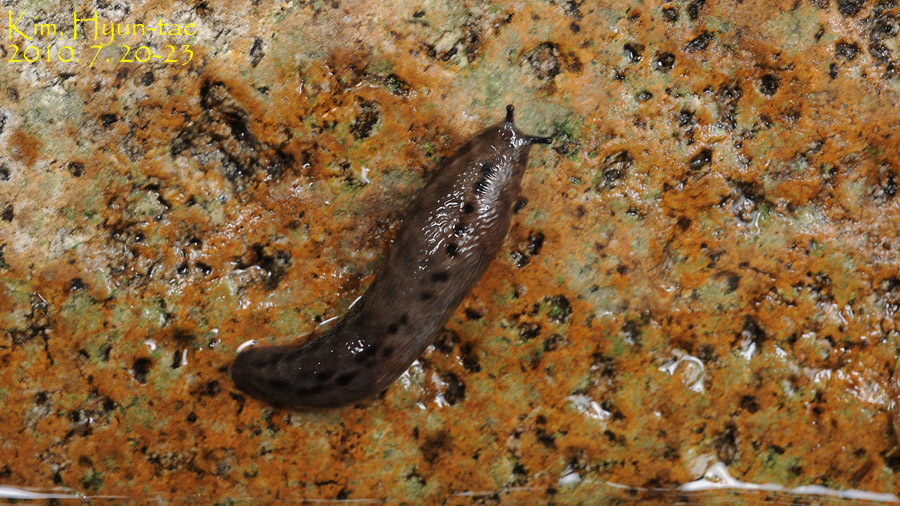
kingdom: Animalia
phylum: Mollusca
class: Gastropoda
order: Stylommatophora
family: Philomycidae
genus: Meghimatium
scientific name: Meghimatium fruhstorferi
